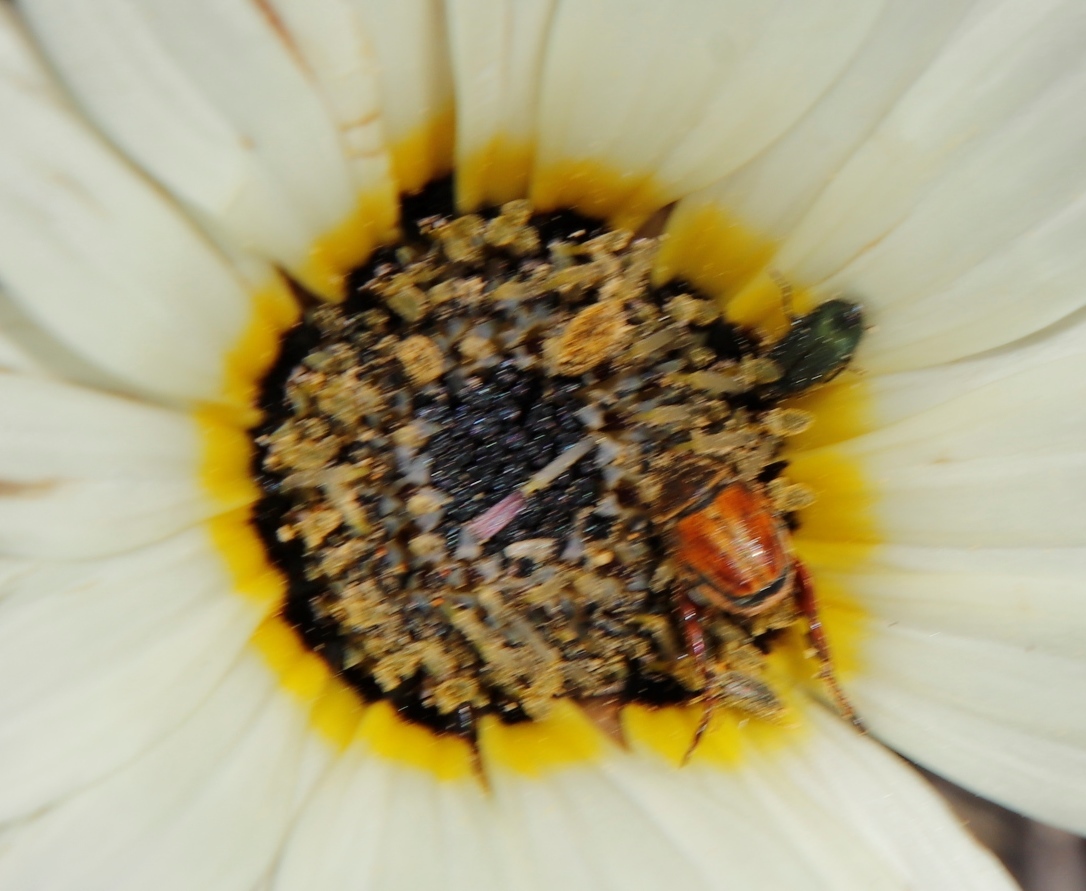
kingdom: Plantae
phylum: Tracheophyta
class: Magnoliopsida
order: Asterales
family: Asteraceae
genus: Arctotis
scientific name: Arctotis stoechadifolia
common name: African daisy
